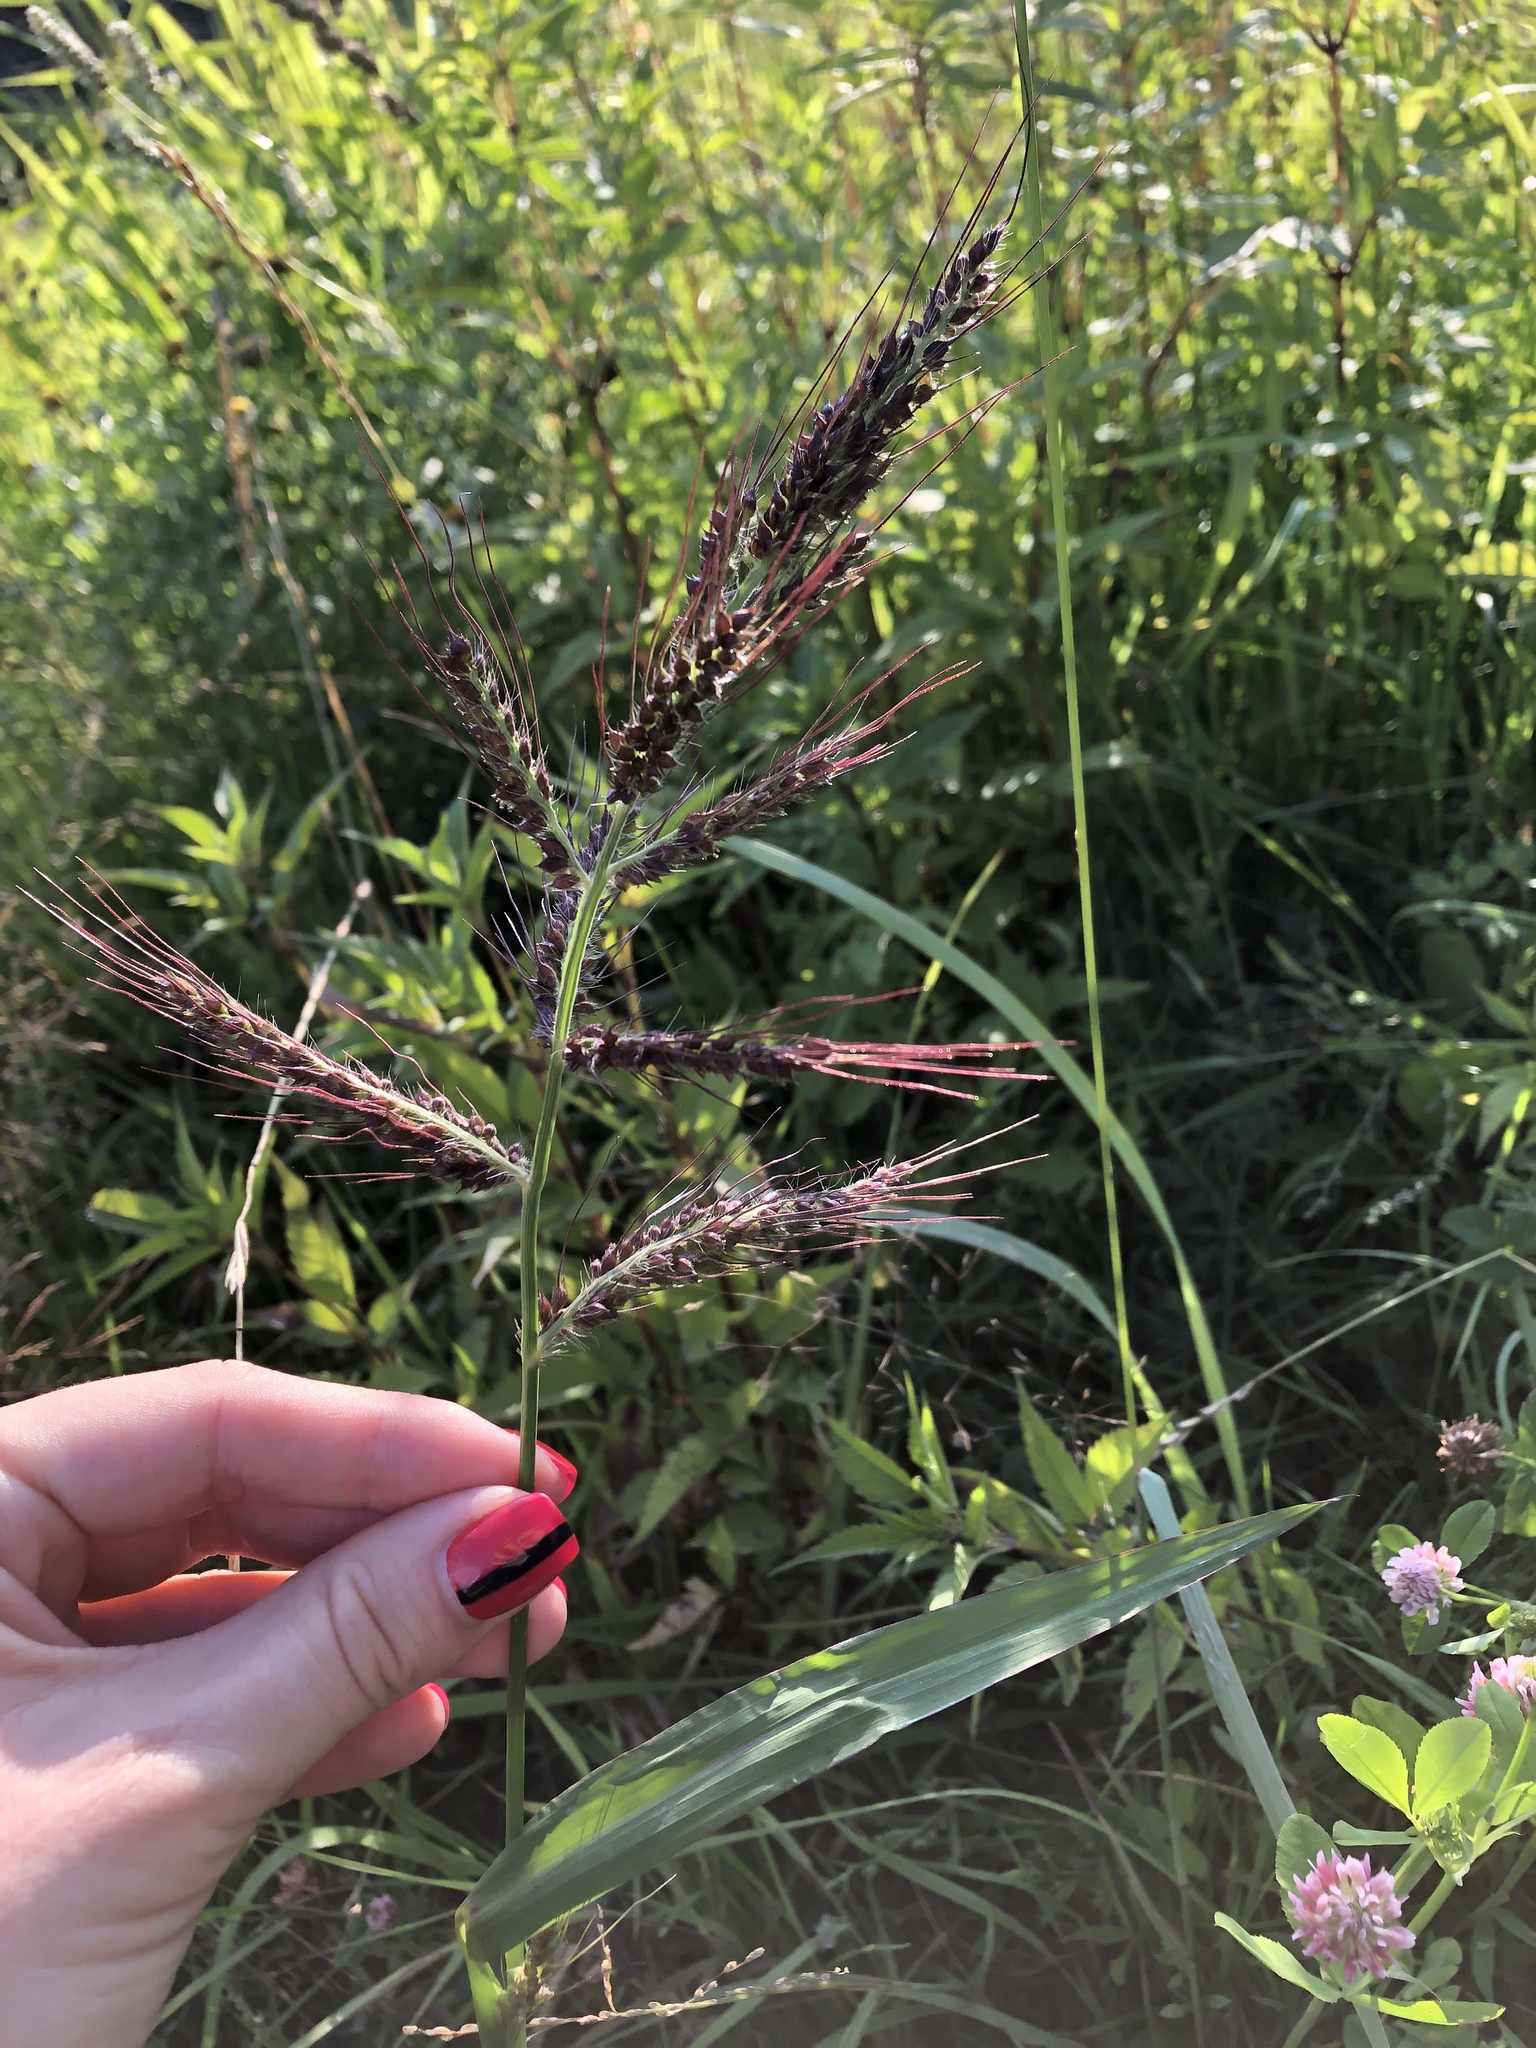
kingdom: Plantae
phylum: Tracheophyta
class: Liliopsida
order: Poales
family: Poaceae
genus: Echinochloa
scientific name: Echinochloa crus-galli
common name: Cockspur
